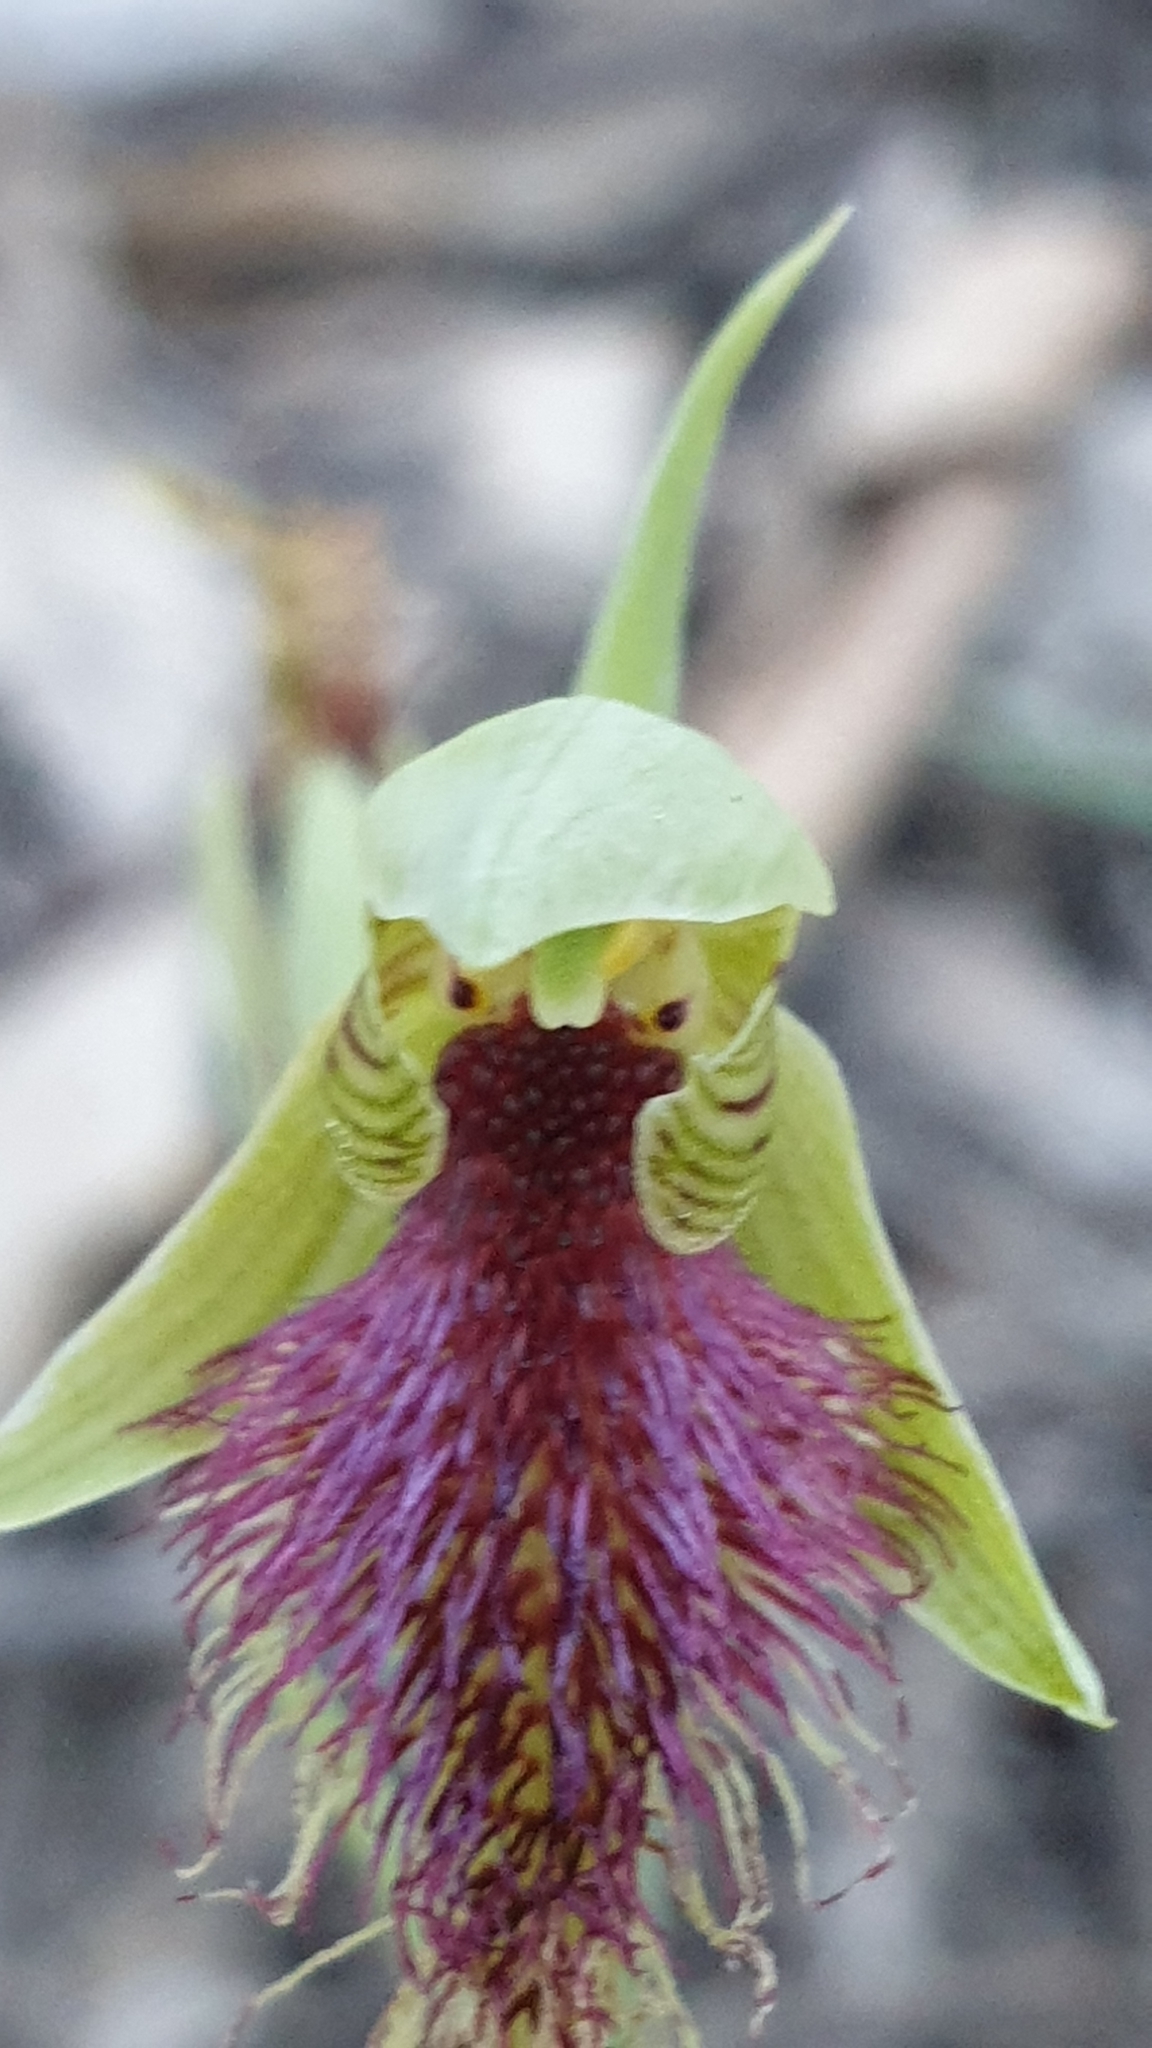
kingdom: Plantae
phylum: Tracheophyta
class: Liliopsida
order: Asparagales
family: Orchidaceae
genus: Calochilus
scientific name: Calochilus robertsonii
